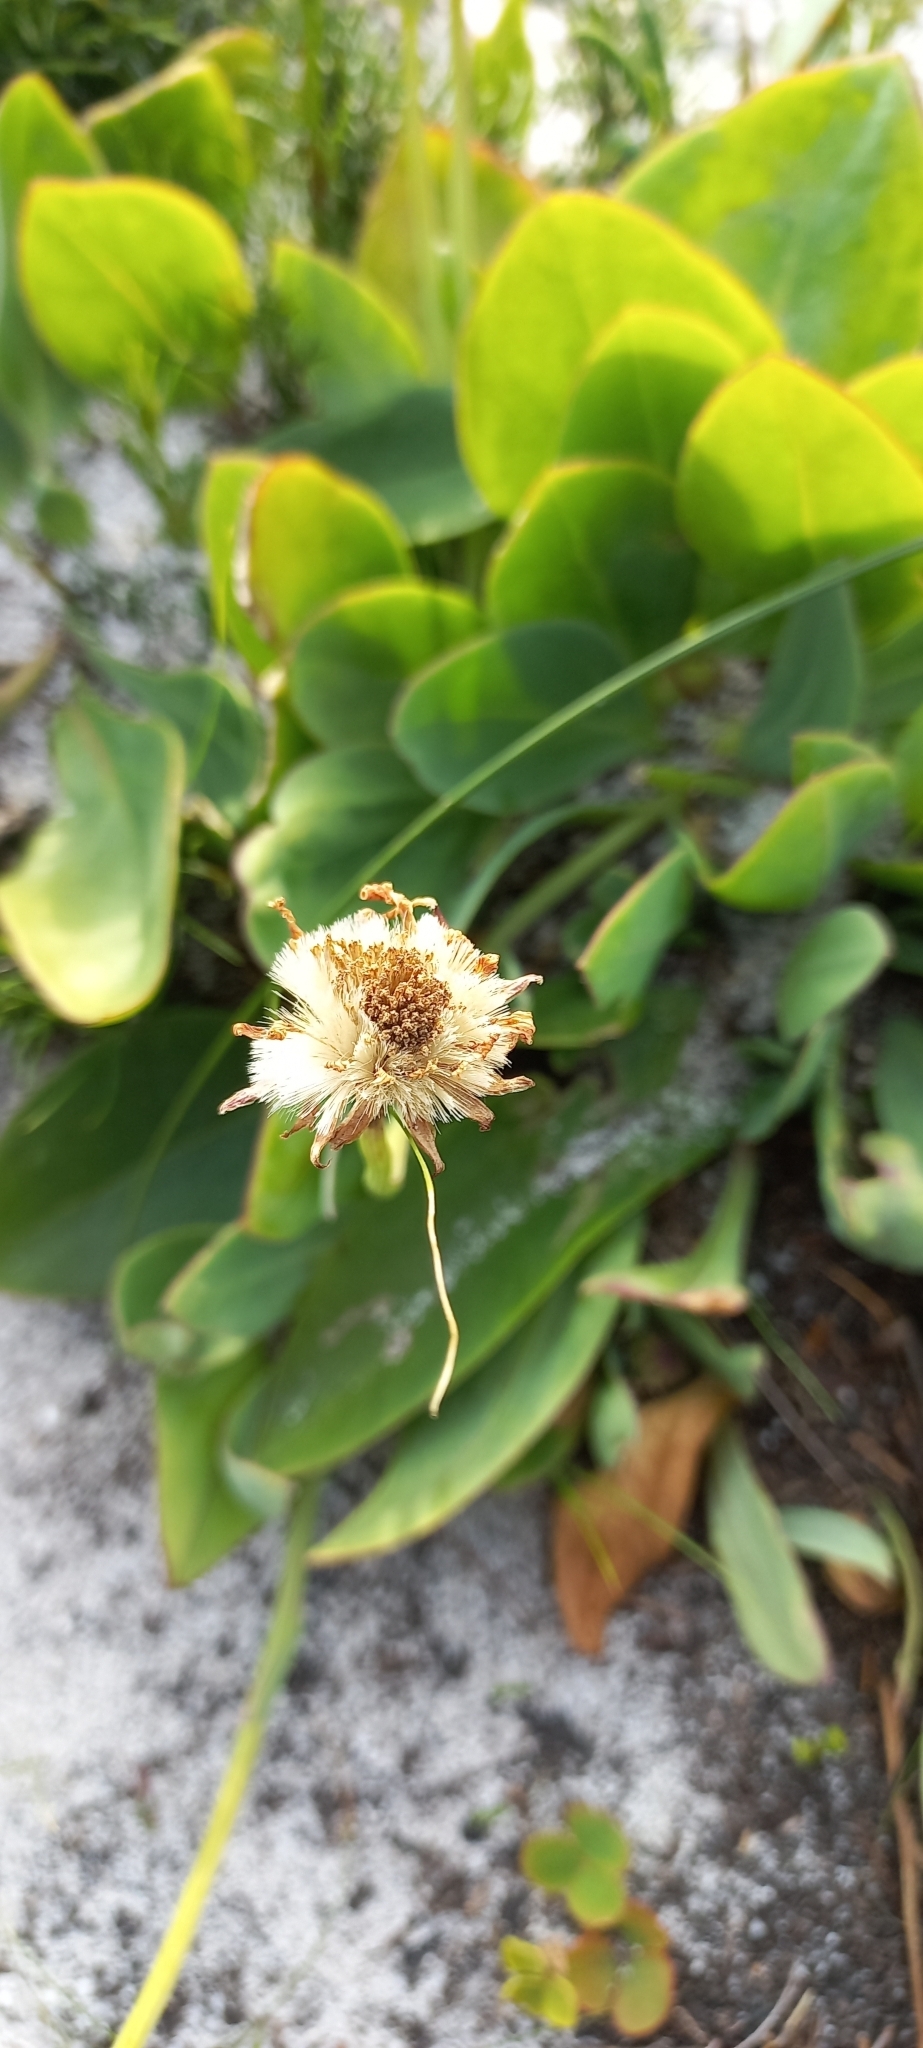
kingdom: Plantae
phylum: Tracheophyta
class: Magnoliopsida
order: Asterales
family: Asteraceae
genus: Othonna
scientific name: Othonna bulbosa
